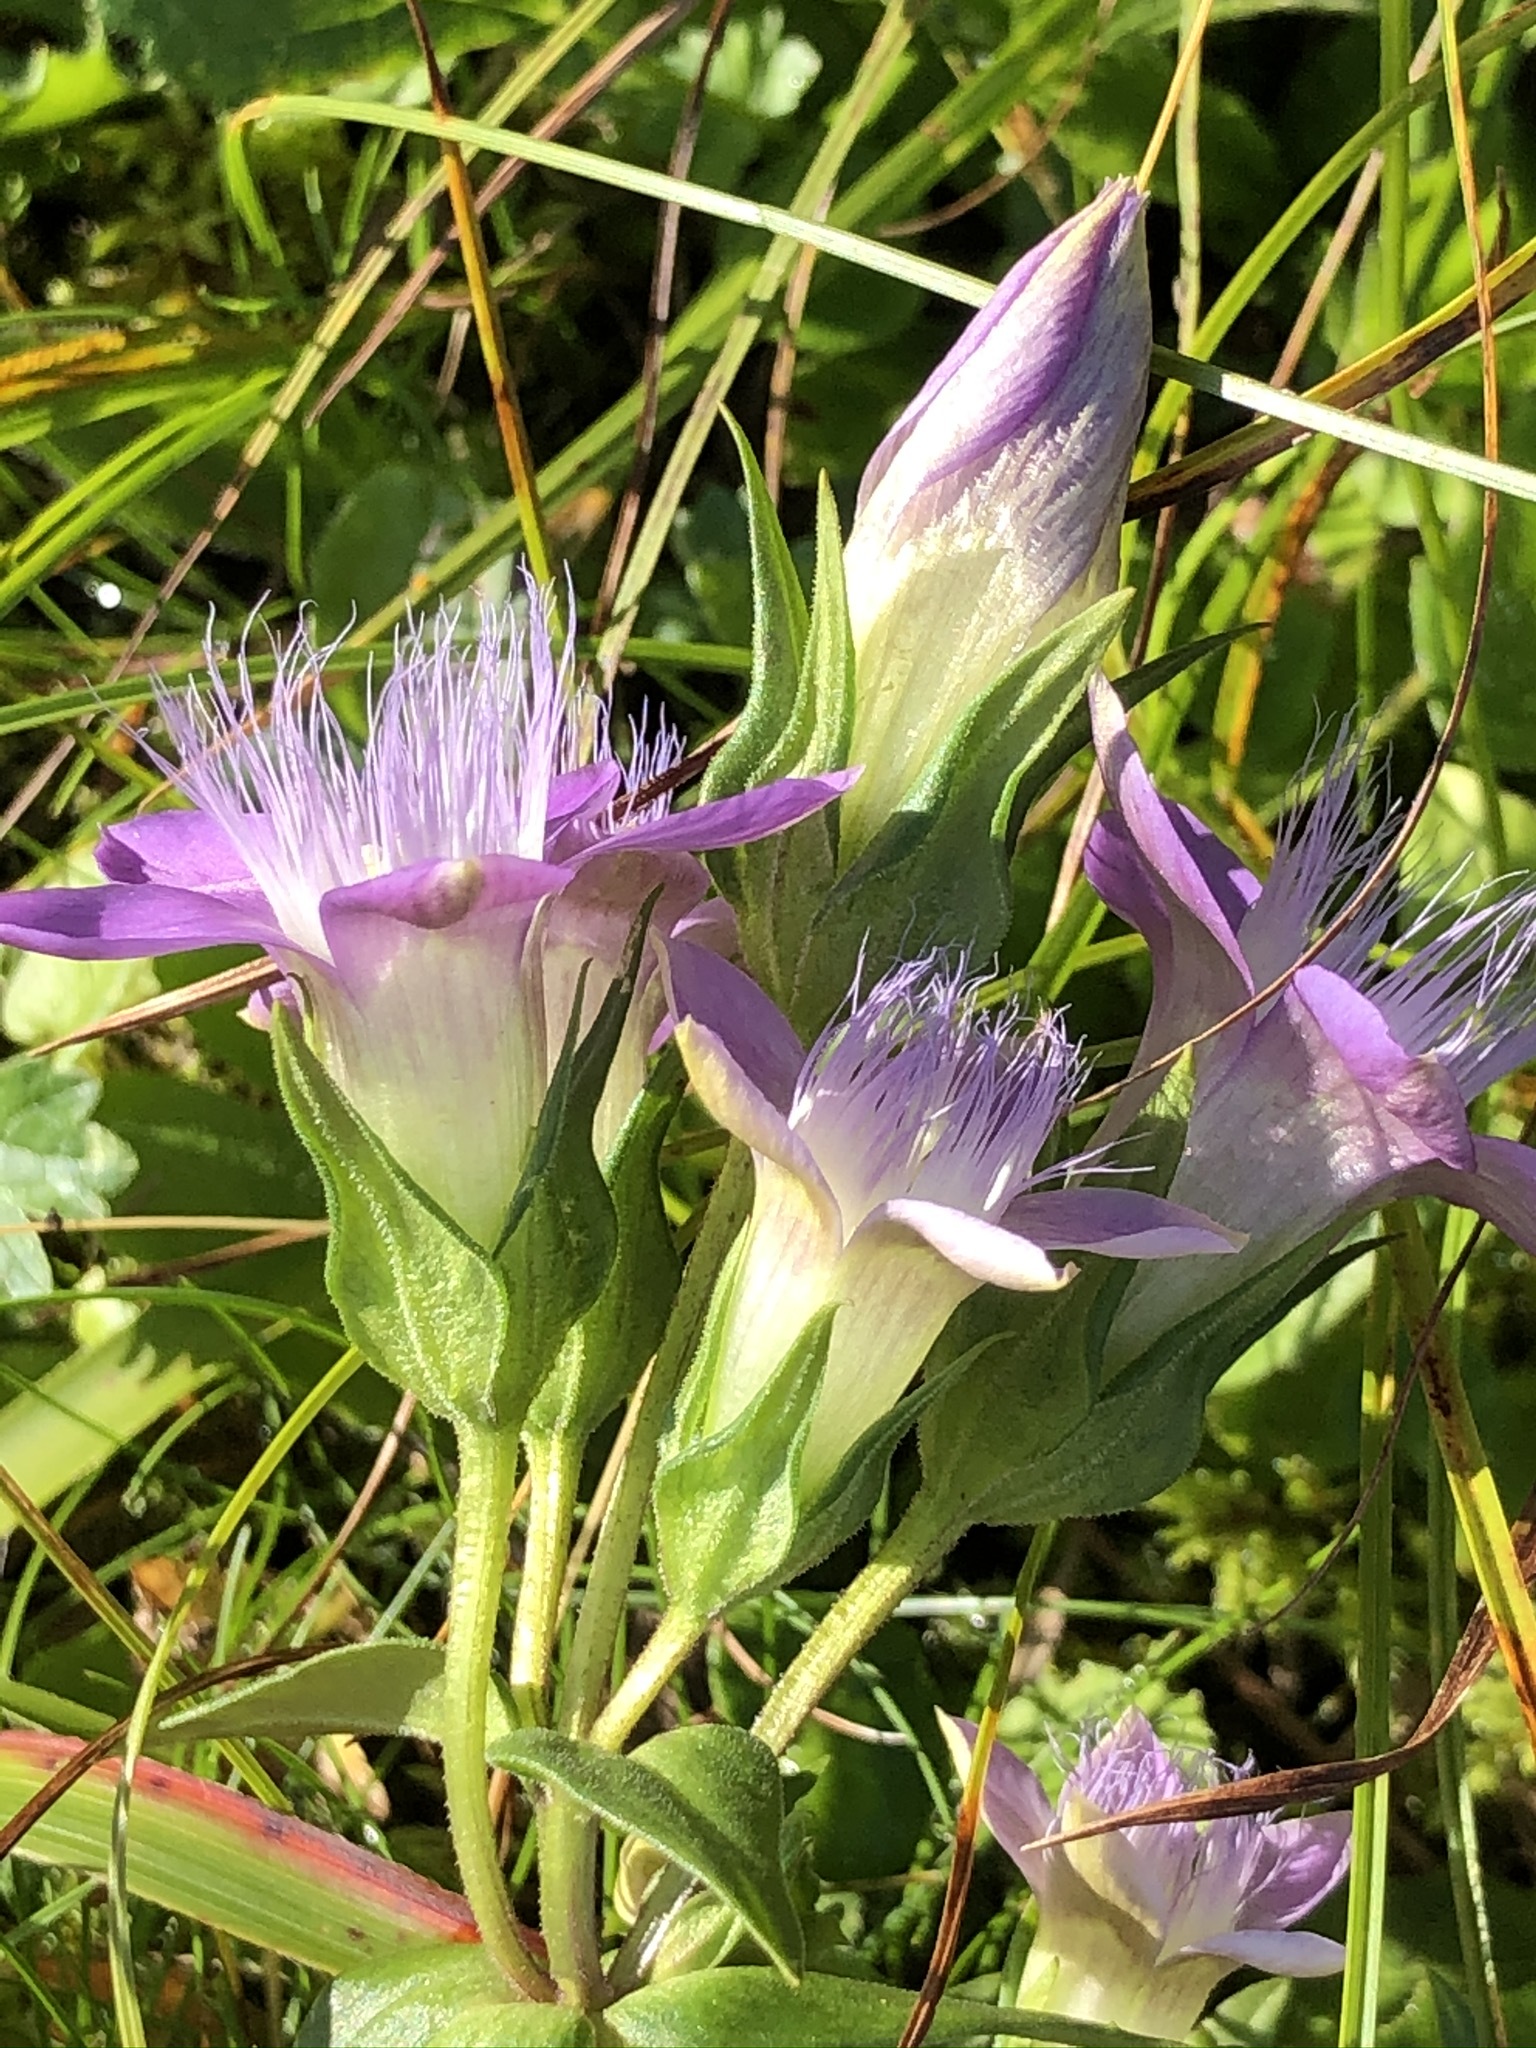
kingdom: Plantae
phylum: Tracheophyta
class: Magnoliopsida
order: Gentianales
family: Gentianaceae
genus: Gentianella
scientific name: Gentianella obtusifolia
